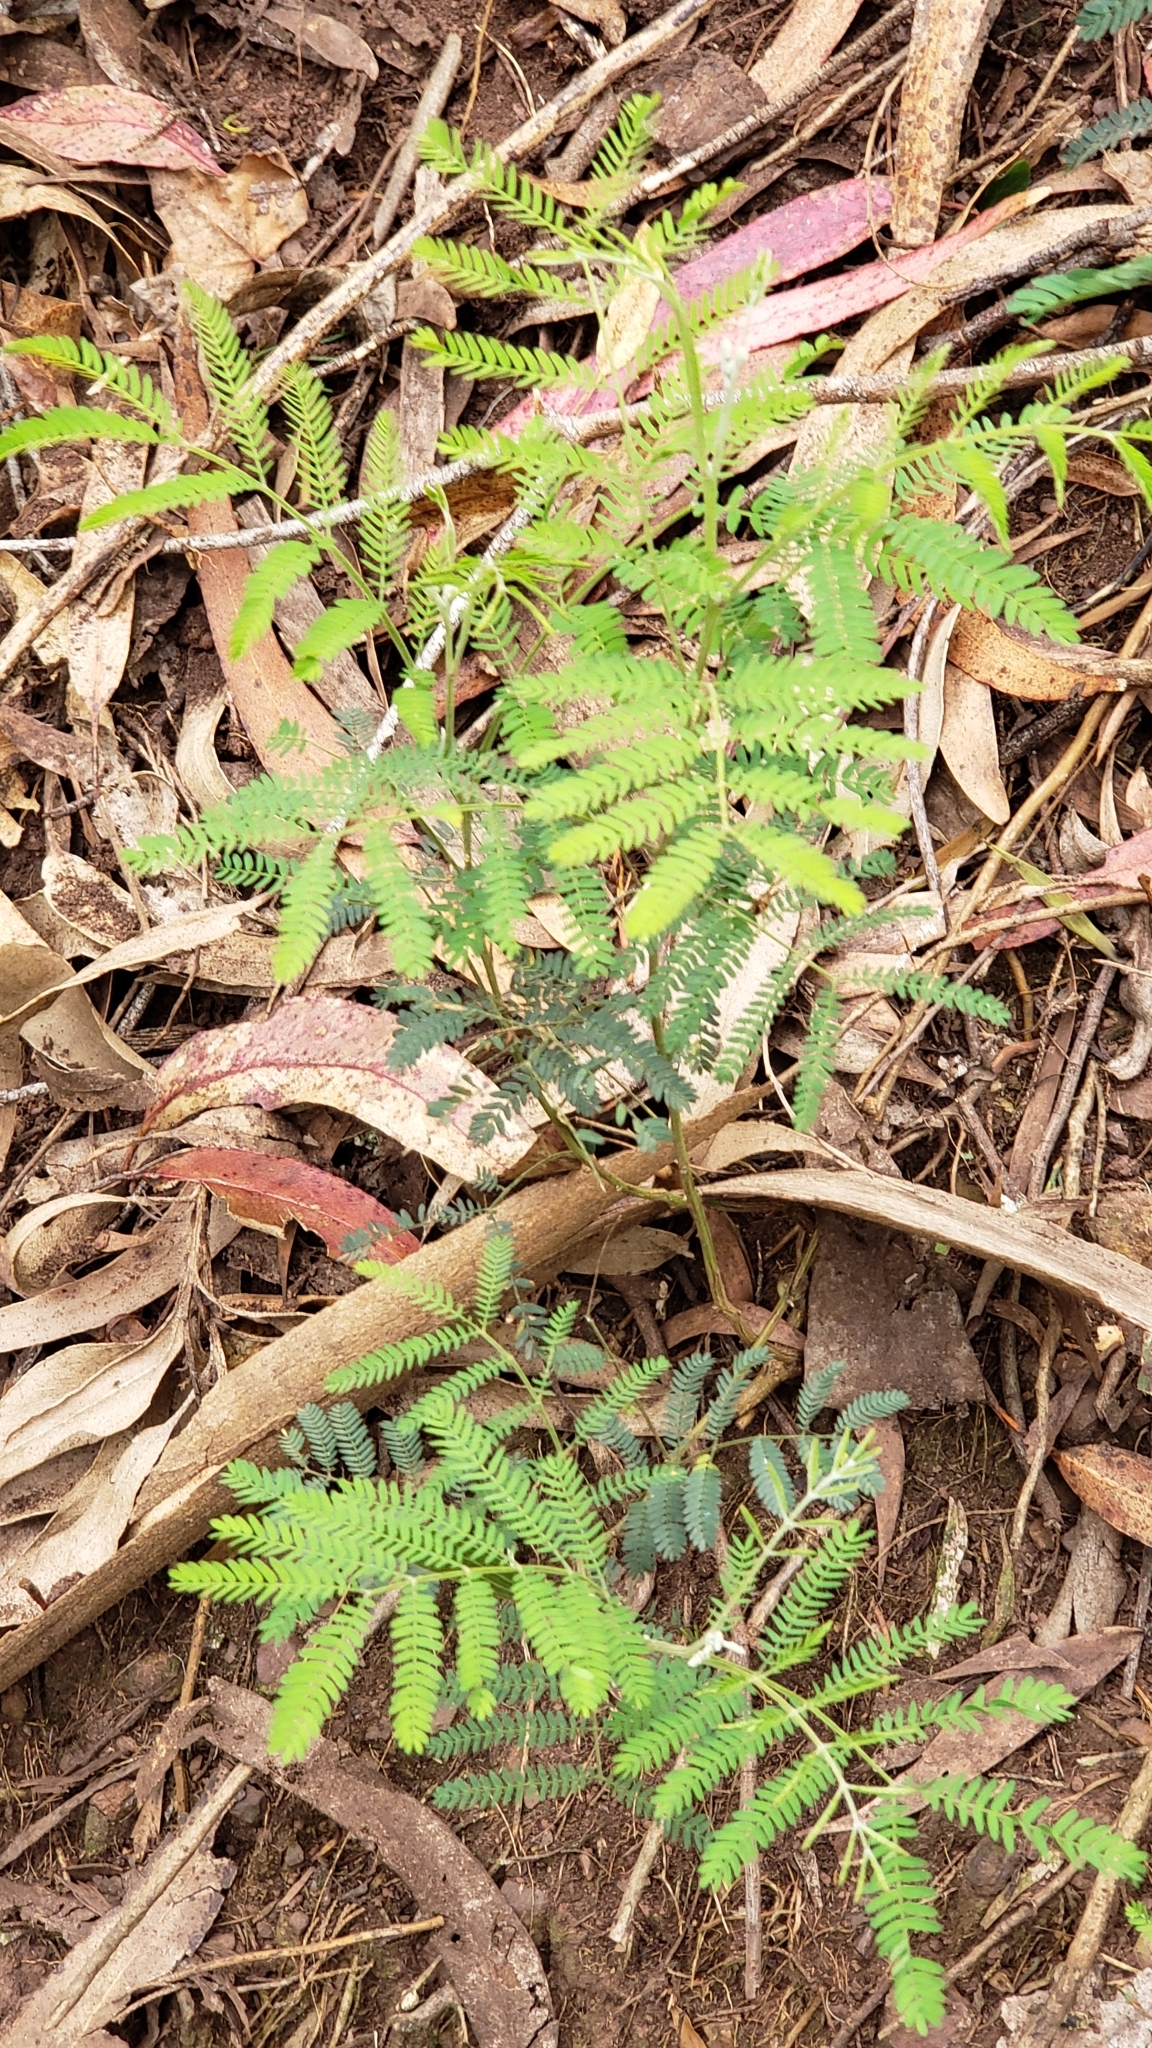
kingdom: Plantae
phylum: Tracheophyta
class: Magnoliopsida
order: Fabales
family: Fabaceae
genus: Acacia
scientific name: Acacia melanoxylon
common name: Blackwood
